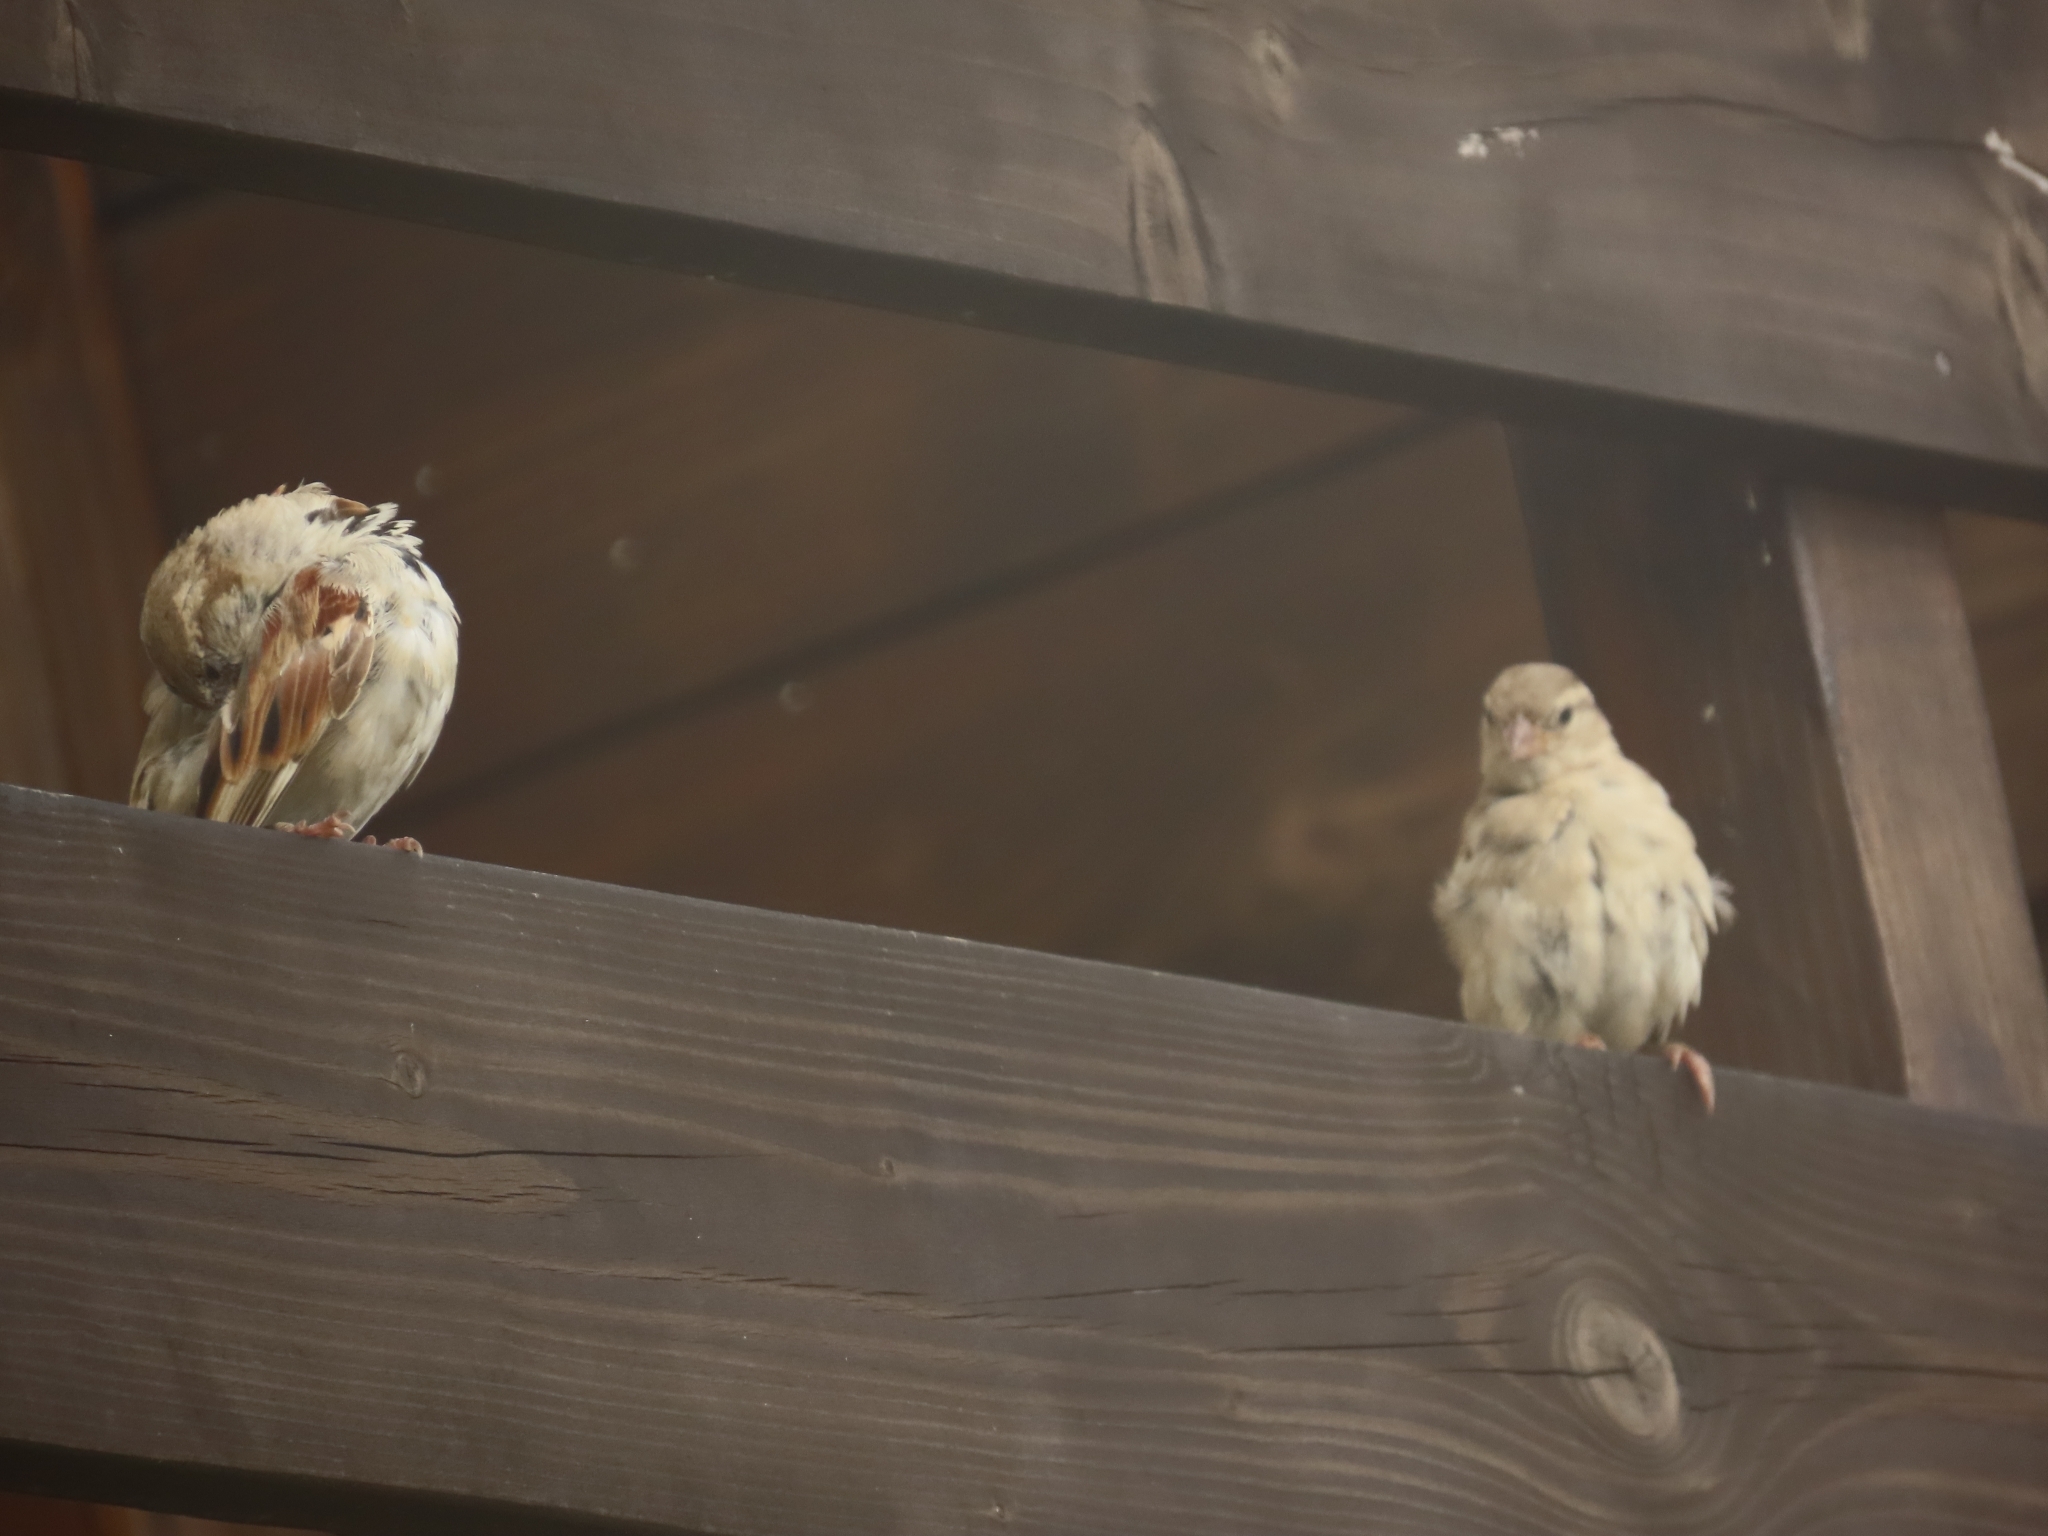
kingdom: Animalia
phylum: Chordata
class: Aves
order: Passeriformes
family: Passeridae
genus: Passer
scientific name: Passer domesticus
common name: House sparrow
